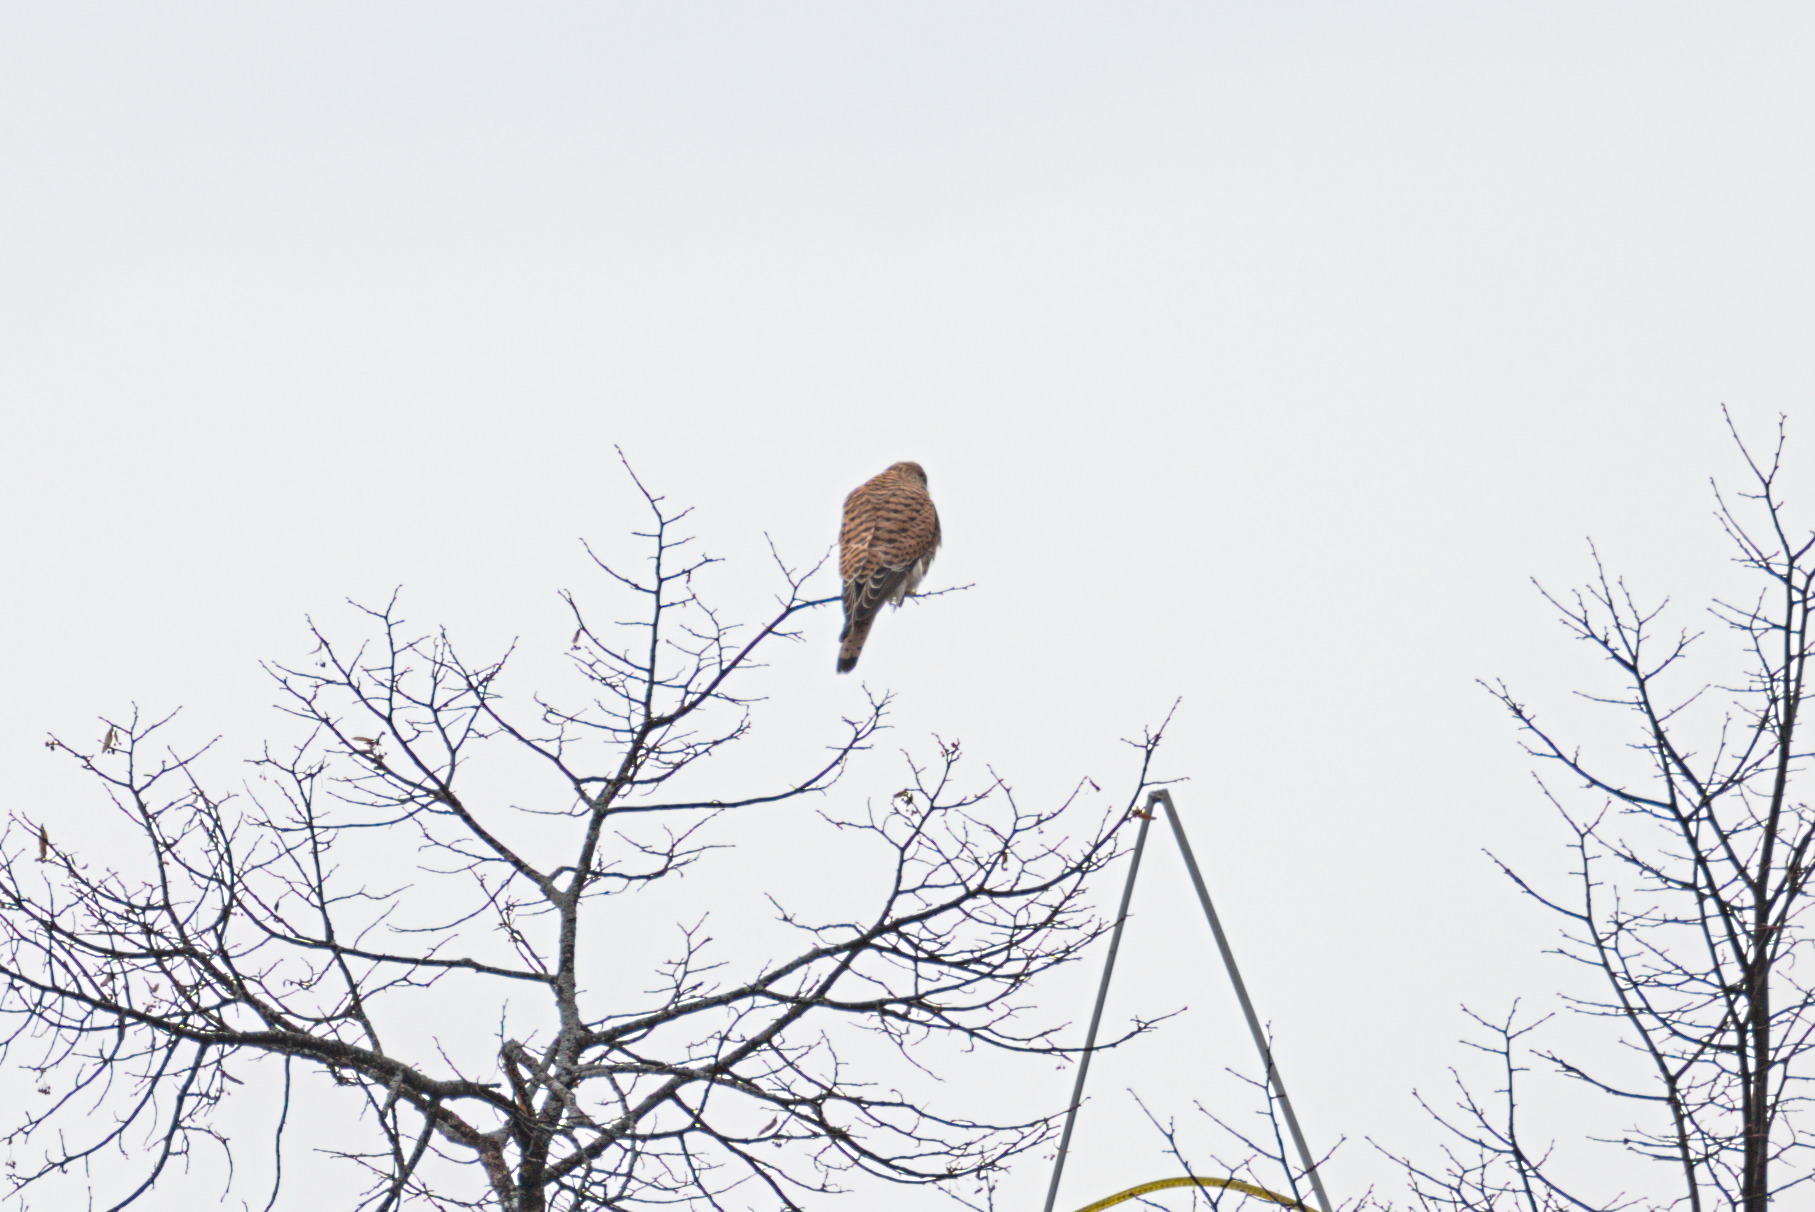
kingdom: Animalia
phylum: Chordata
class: Aves
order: Falconiformes
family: Falconidae
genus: Falco
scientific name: Falco tinnunculus
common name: Common kestrel
